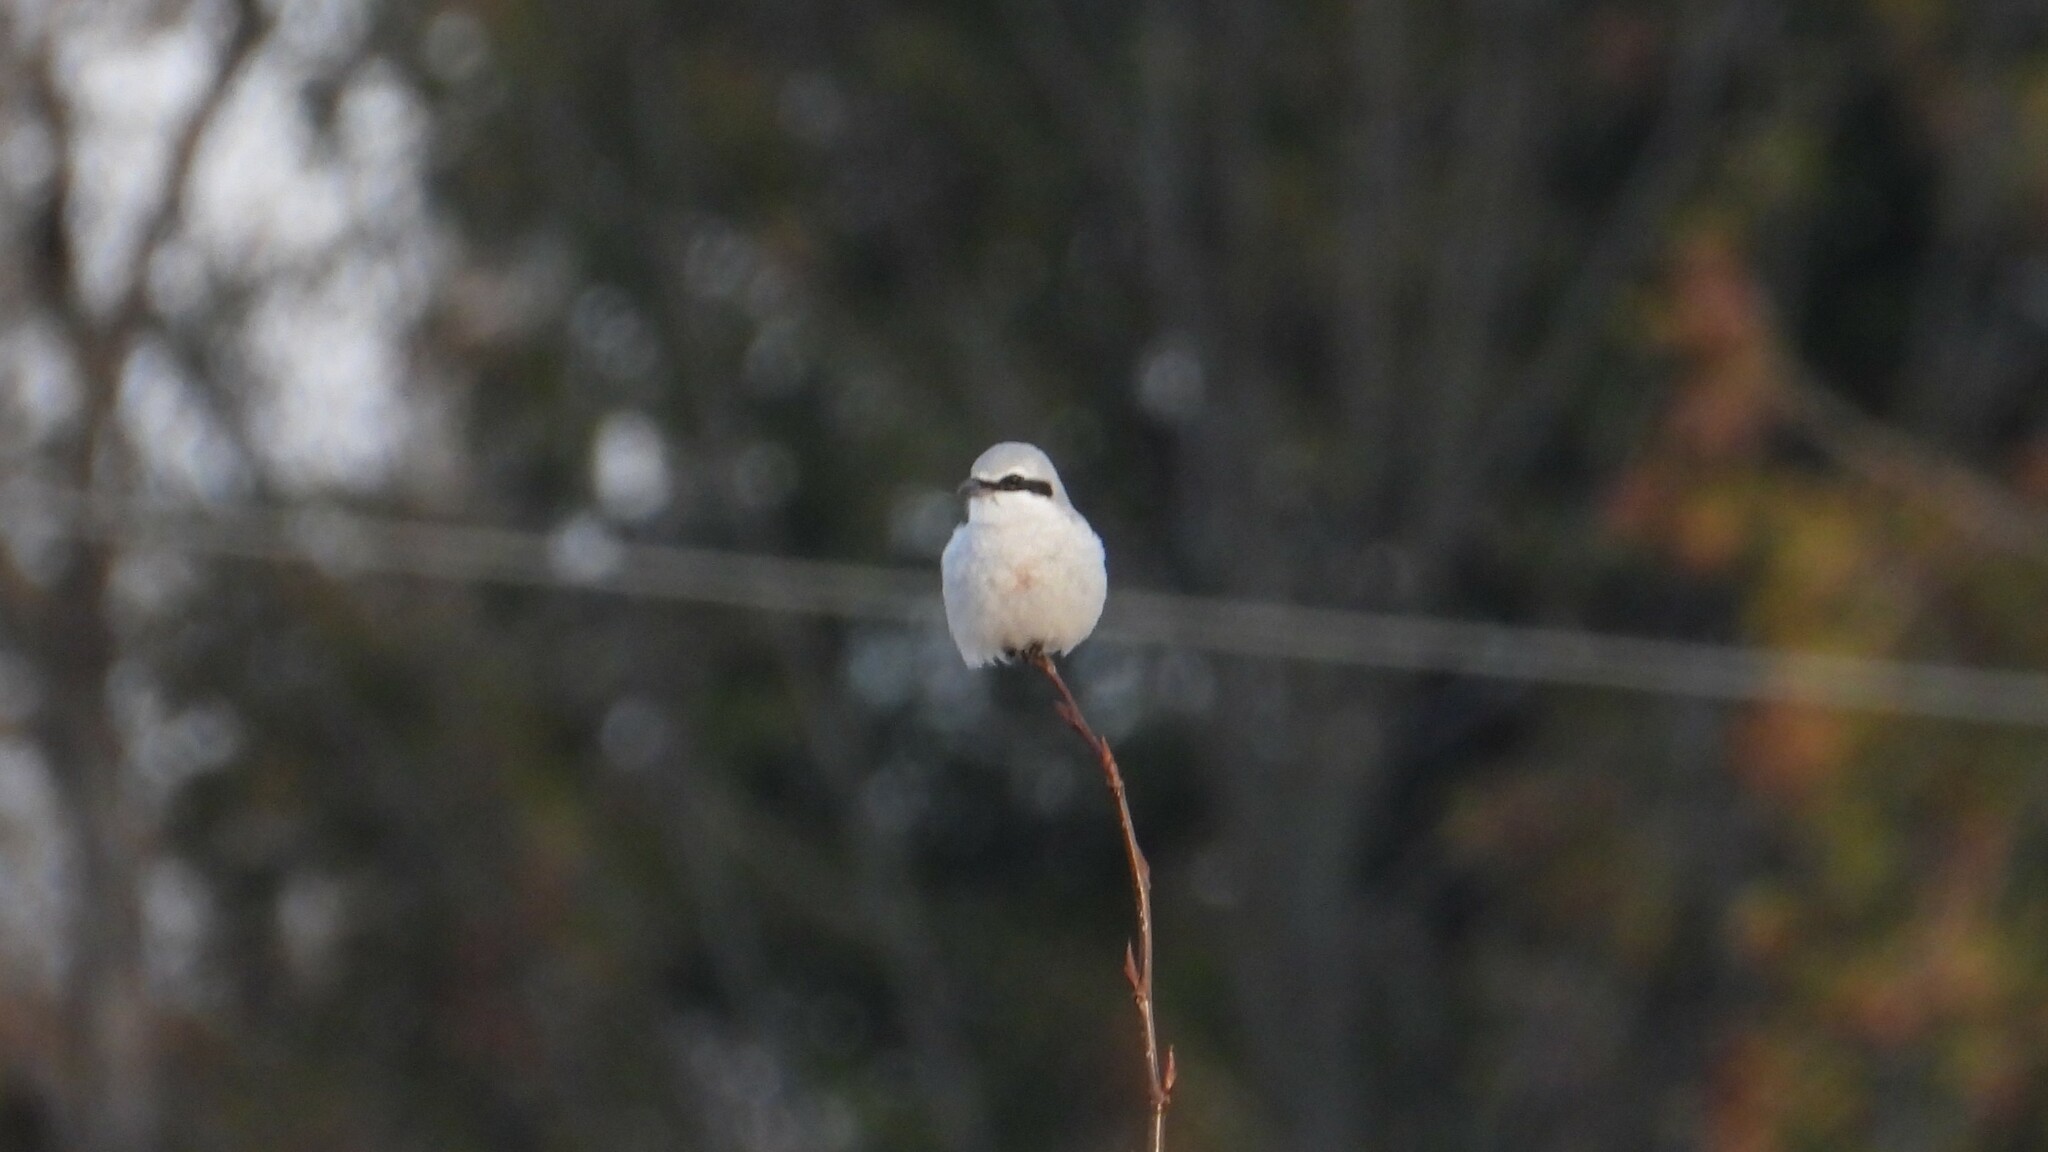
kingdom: Animalia
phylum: Chordata
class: Aves
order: Passeriformes
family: Laniidae
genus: Lanius
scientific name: Lanius borealis
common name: Northern shrike
